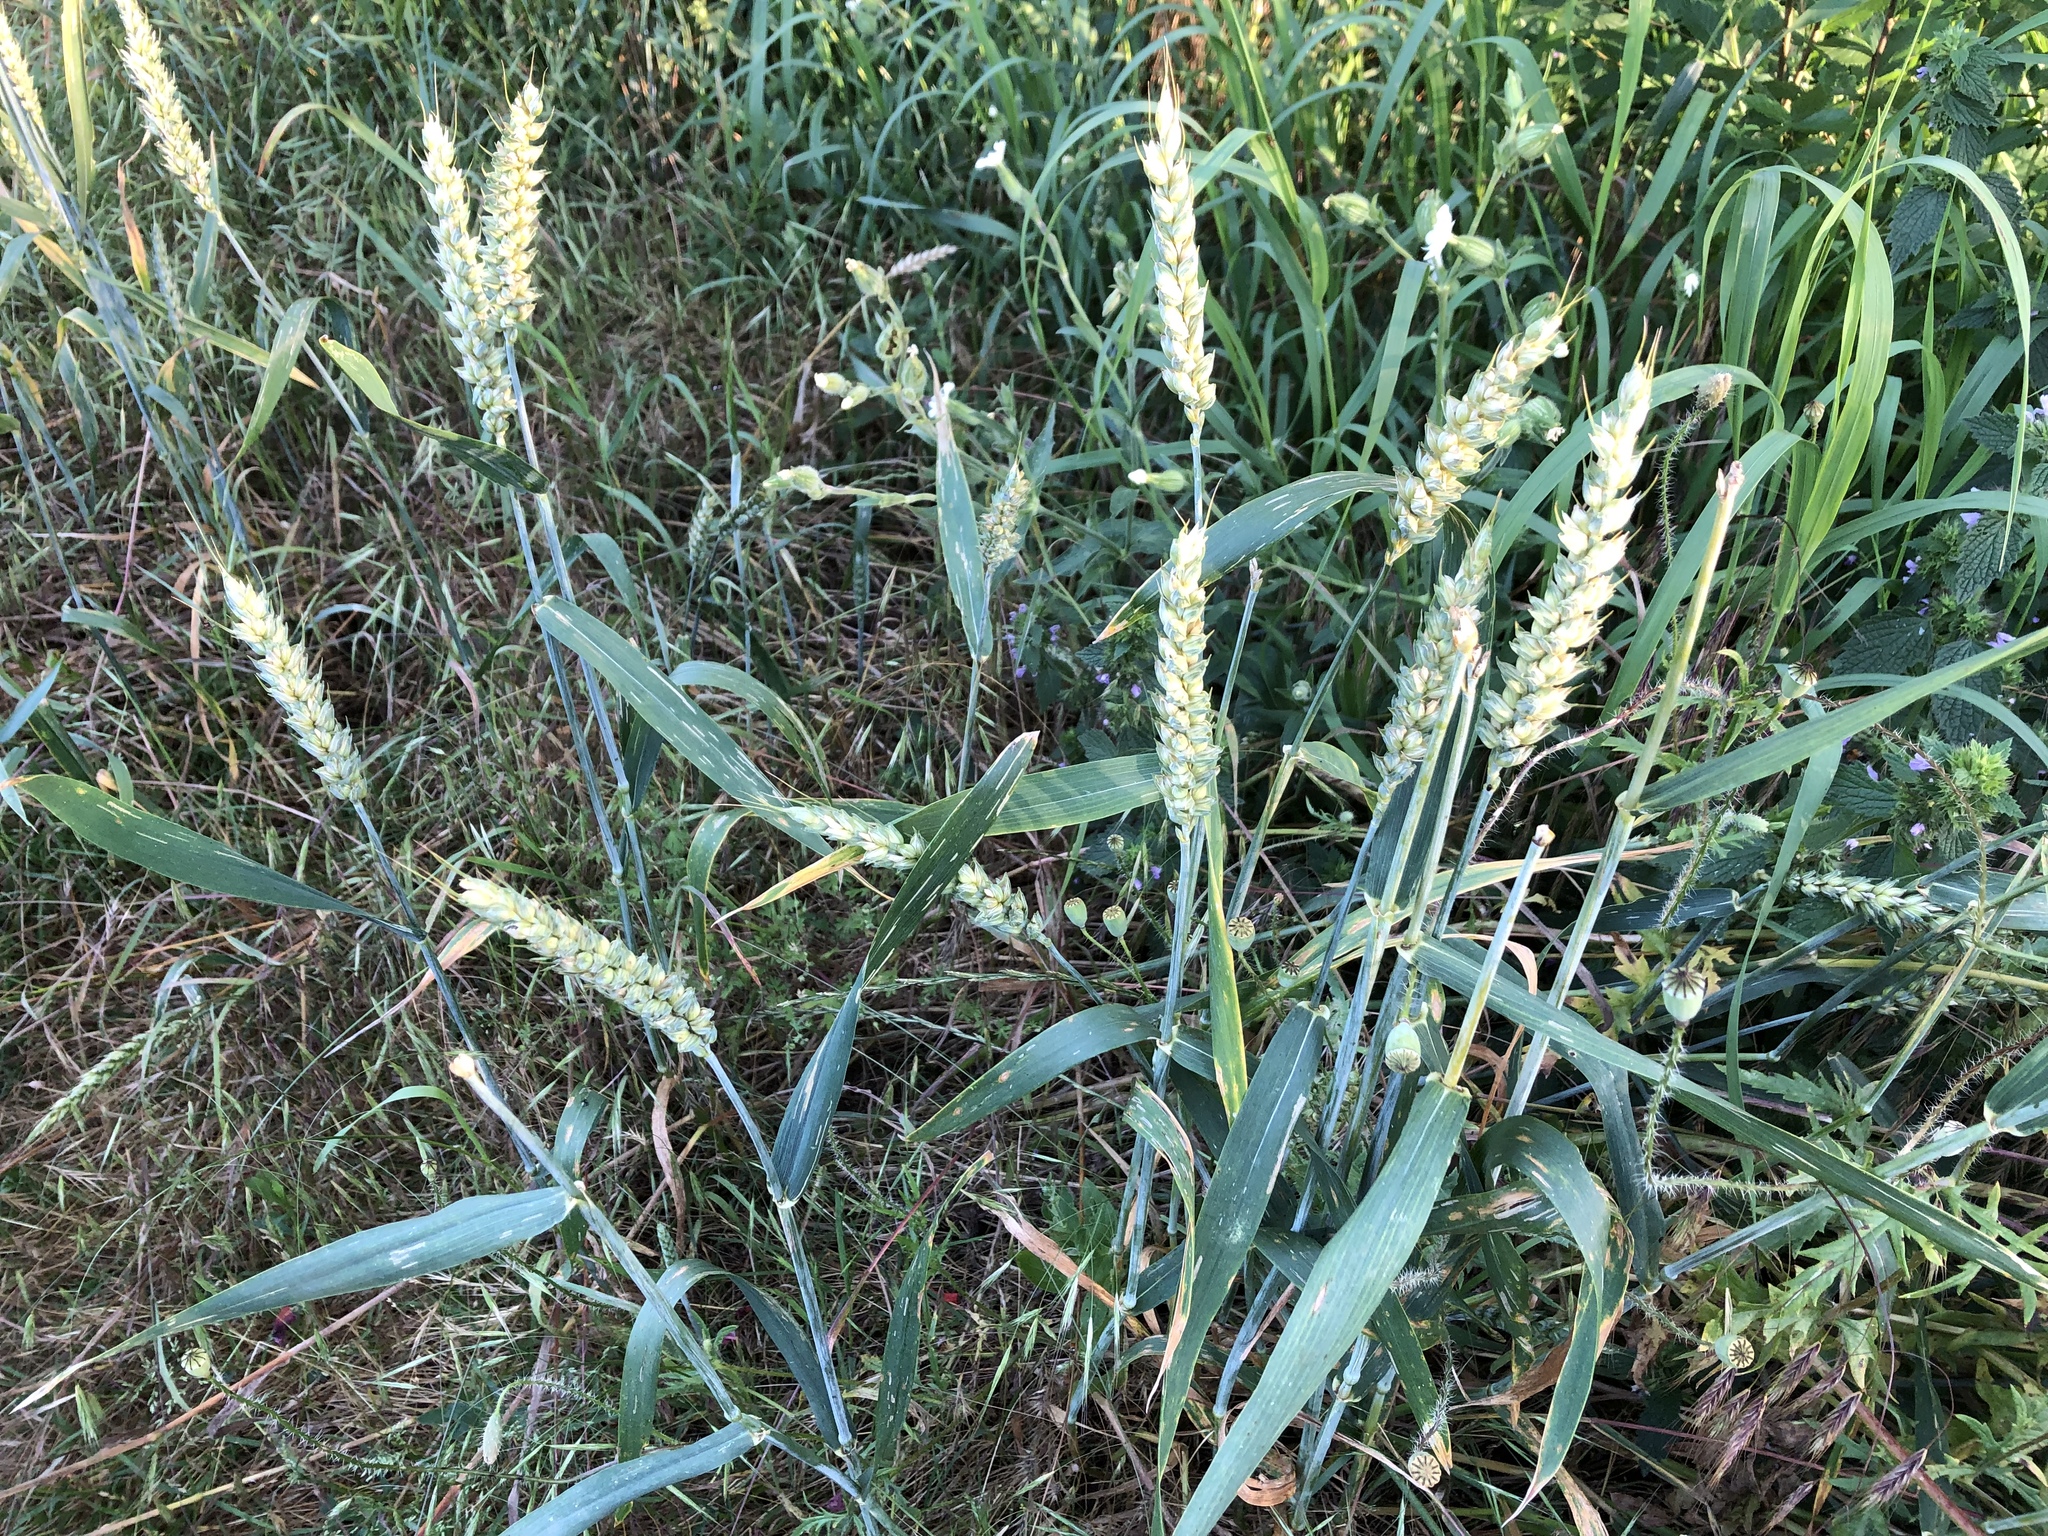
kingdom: Plantae
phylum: Tracheophyta
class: Liliopsida
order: Poales
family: Poaceae
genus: Triticum
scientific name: Triticum aestivum
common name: Common wheat
